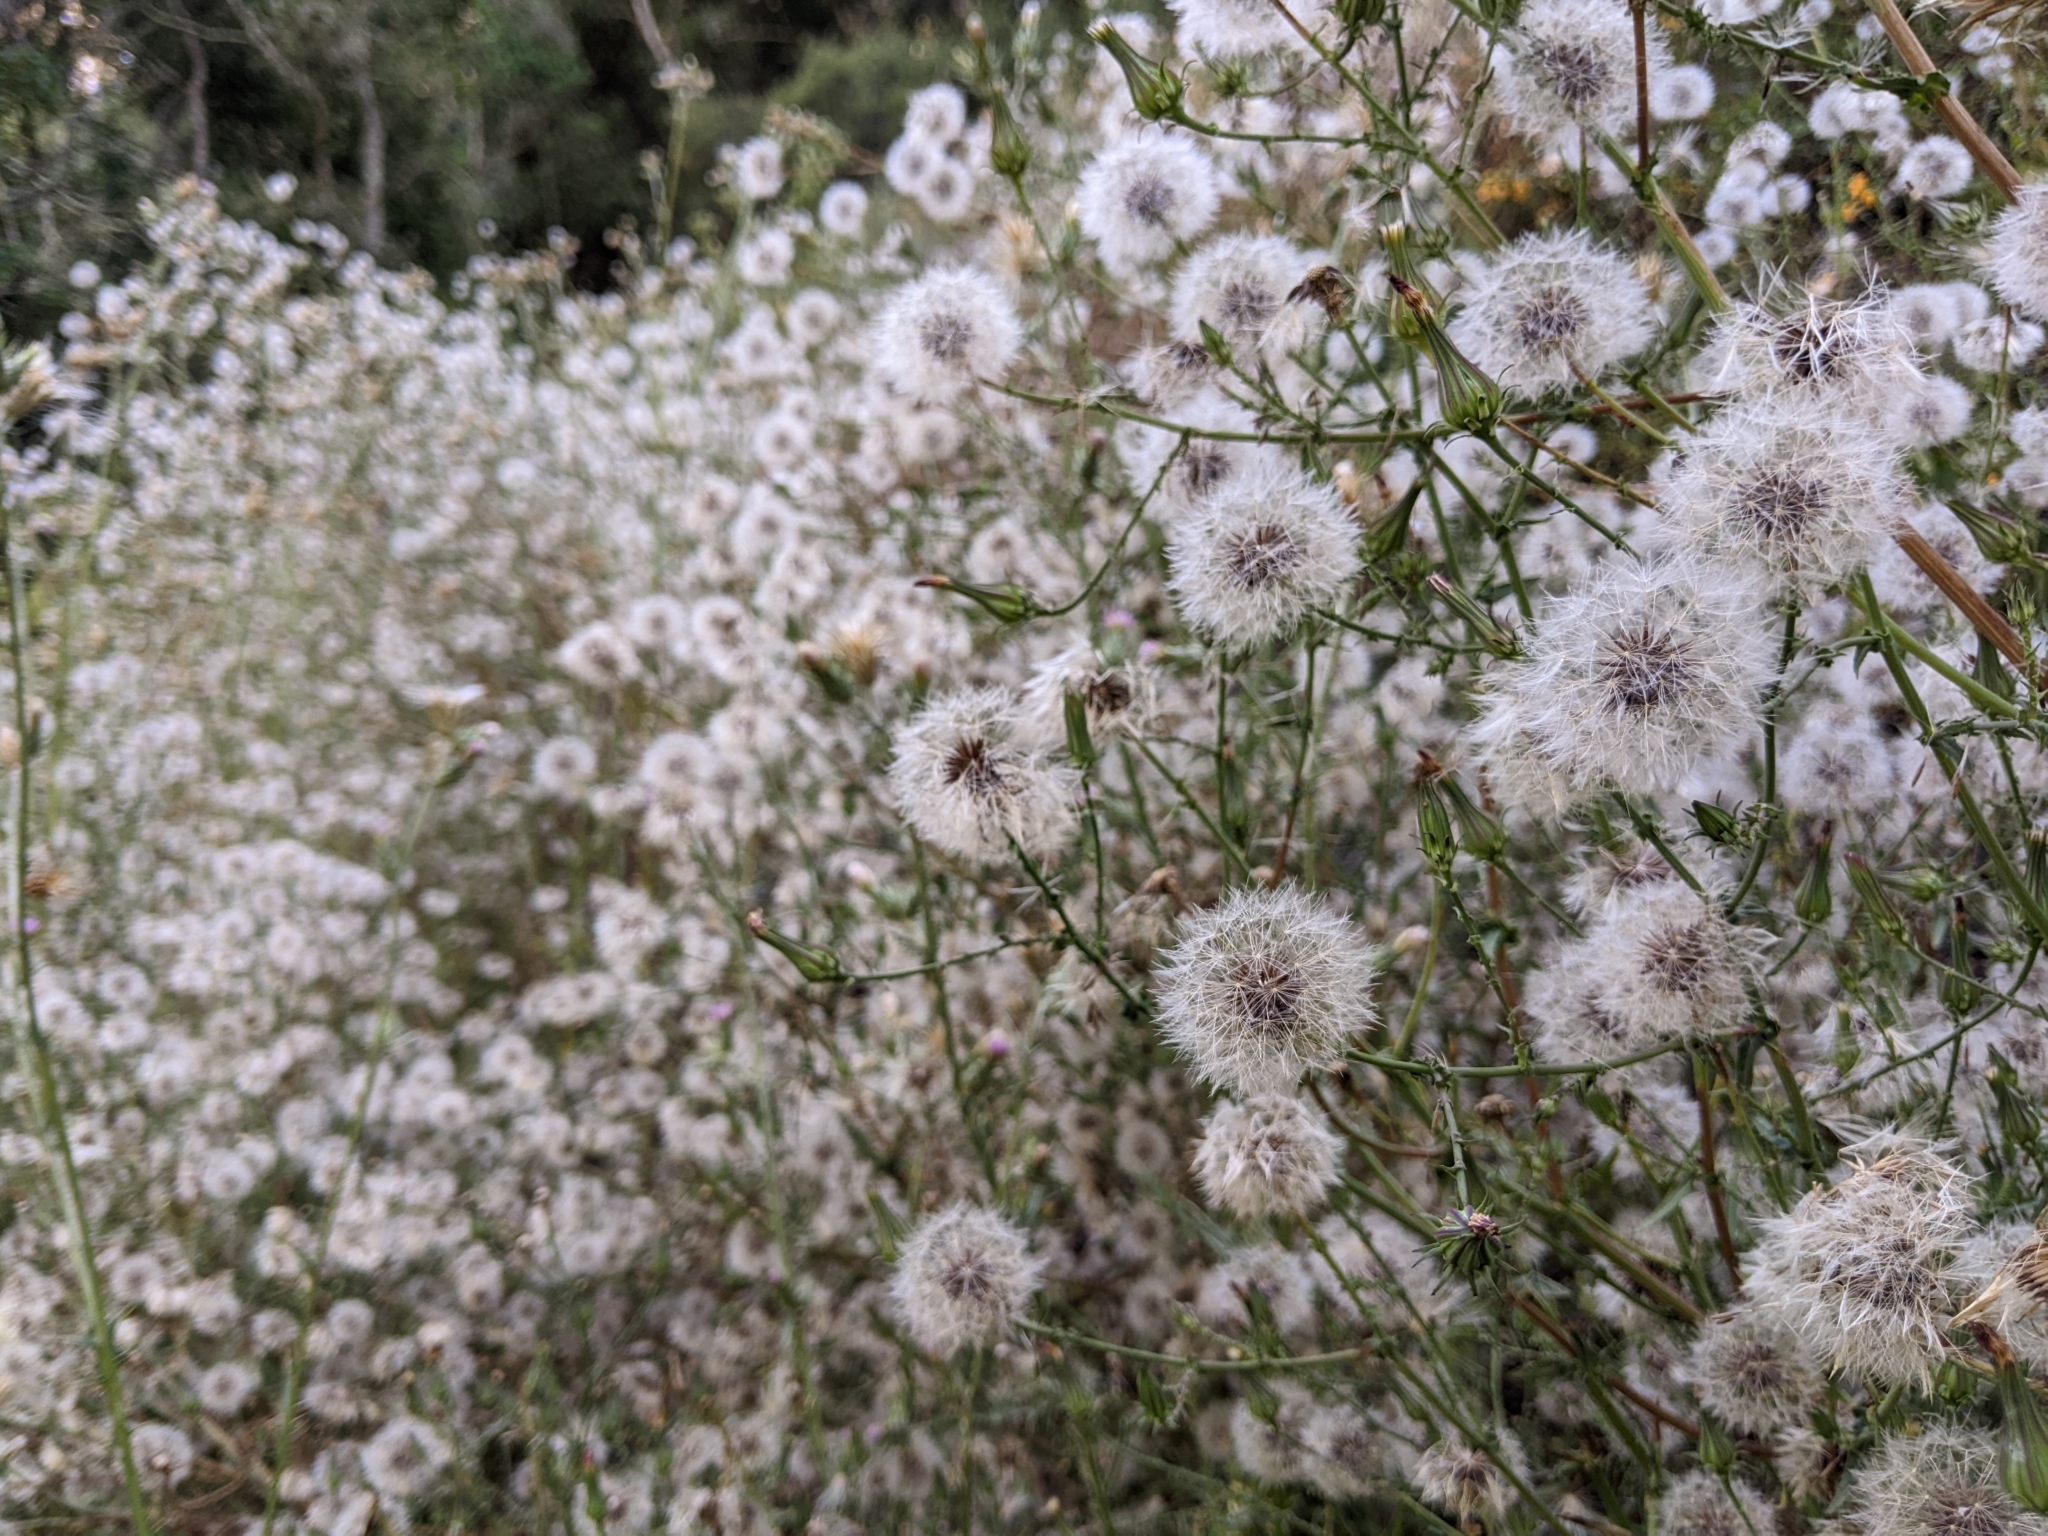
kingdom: Plantae
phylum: Tracheophyta
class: Magnoliopsida
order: Asterales
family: Asteraceae
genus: Rafinesquia
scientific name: Rafinesquia californica
